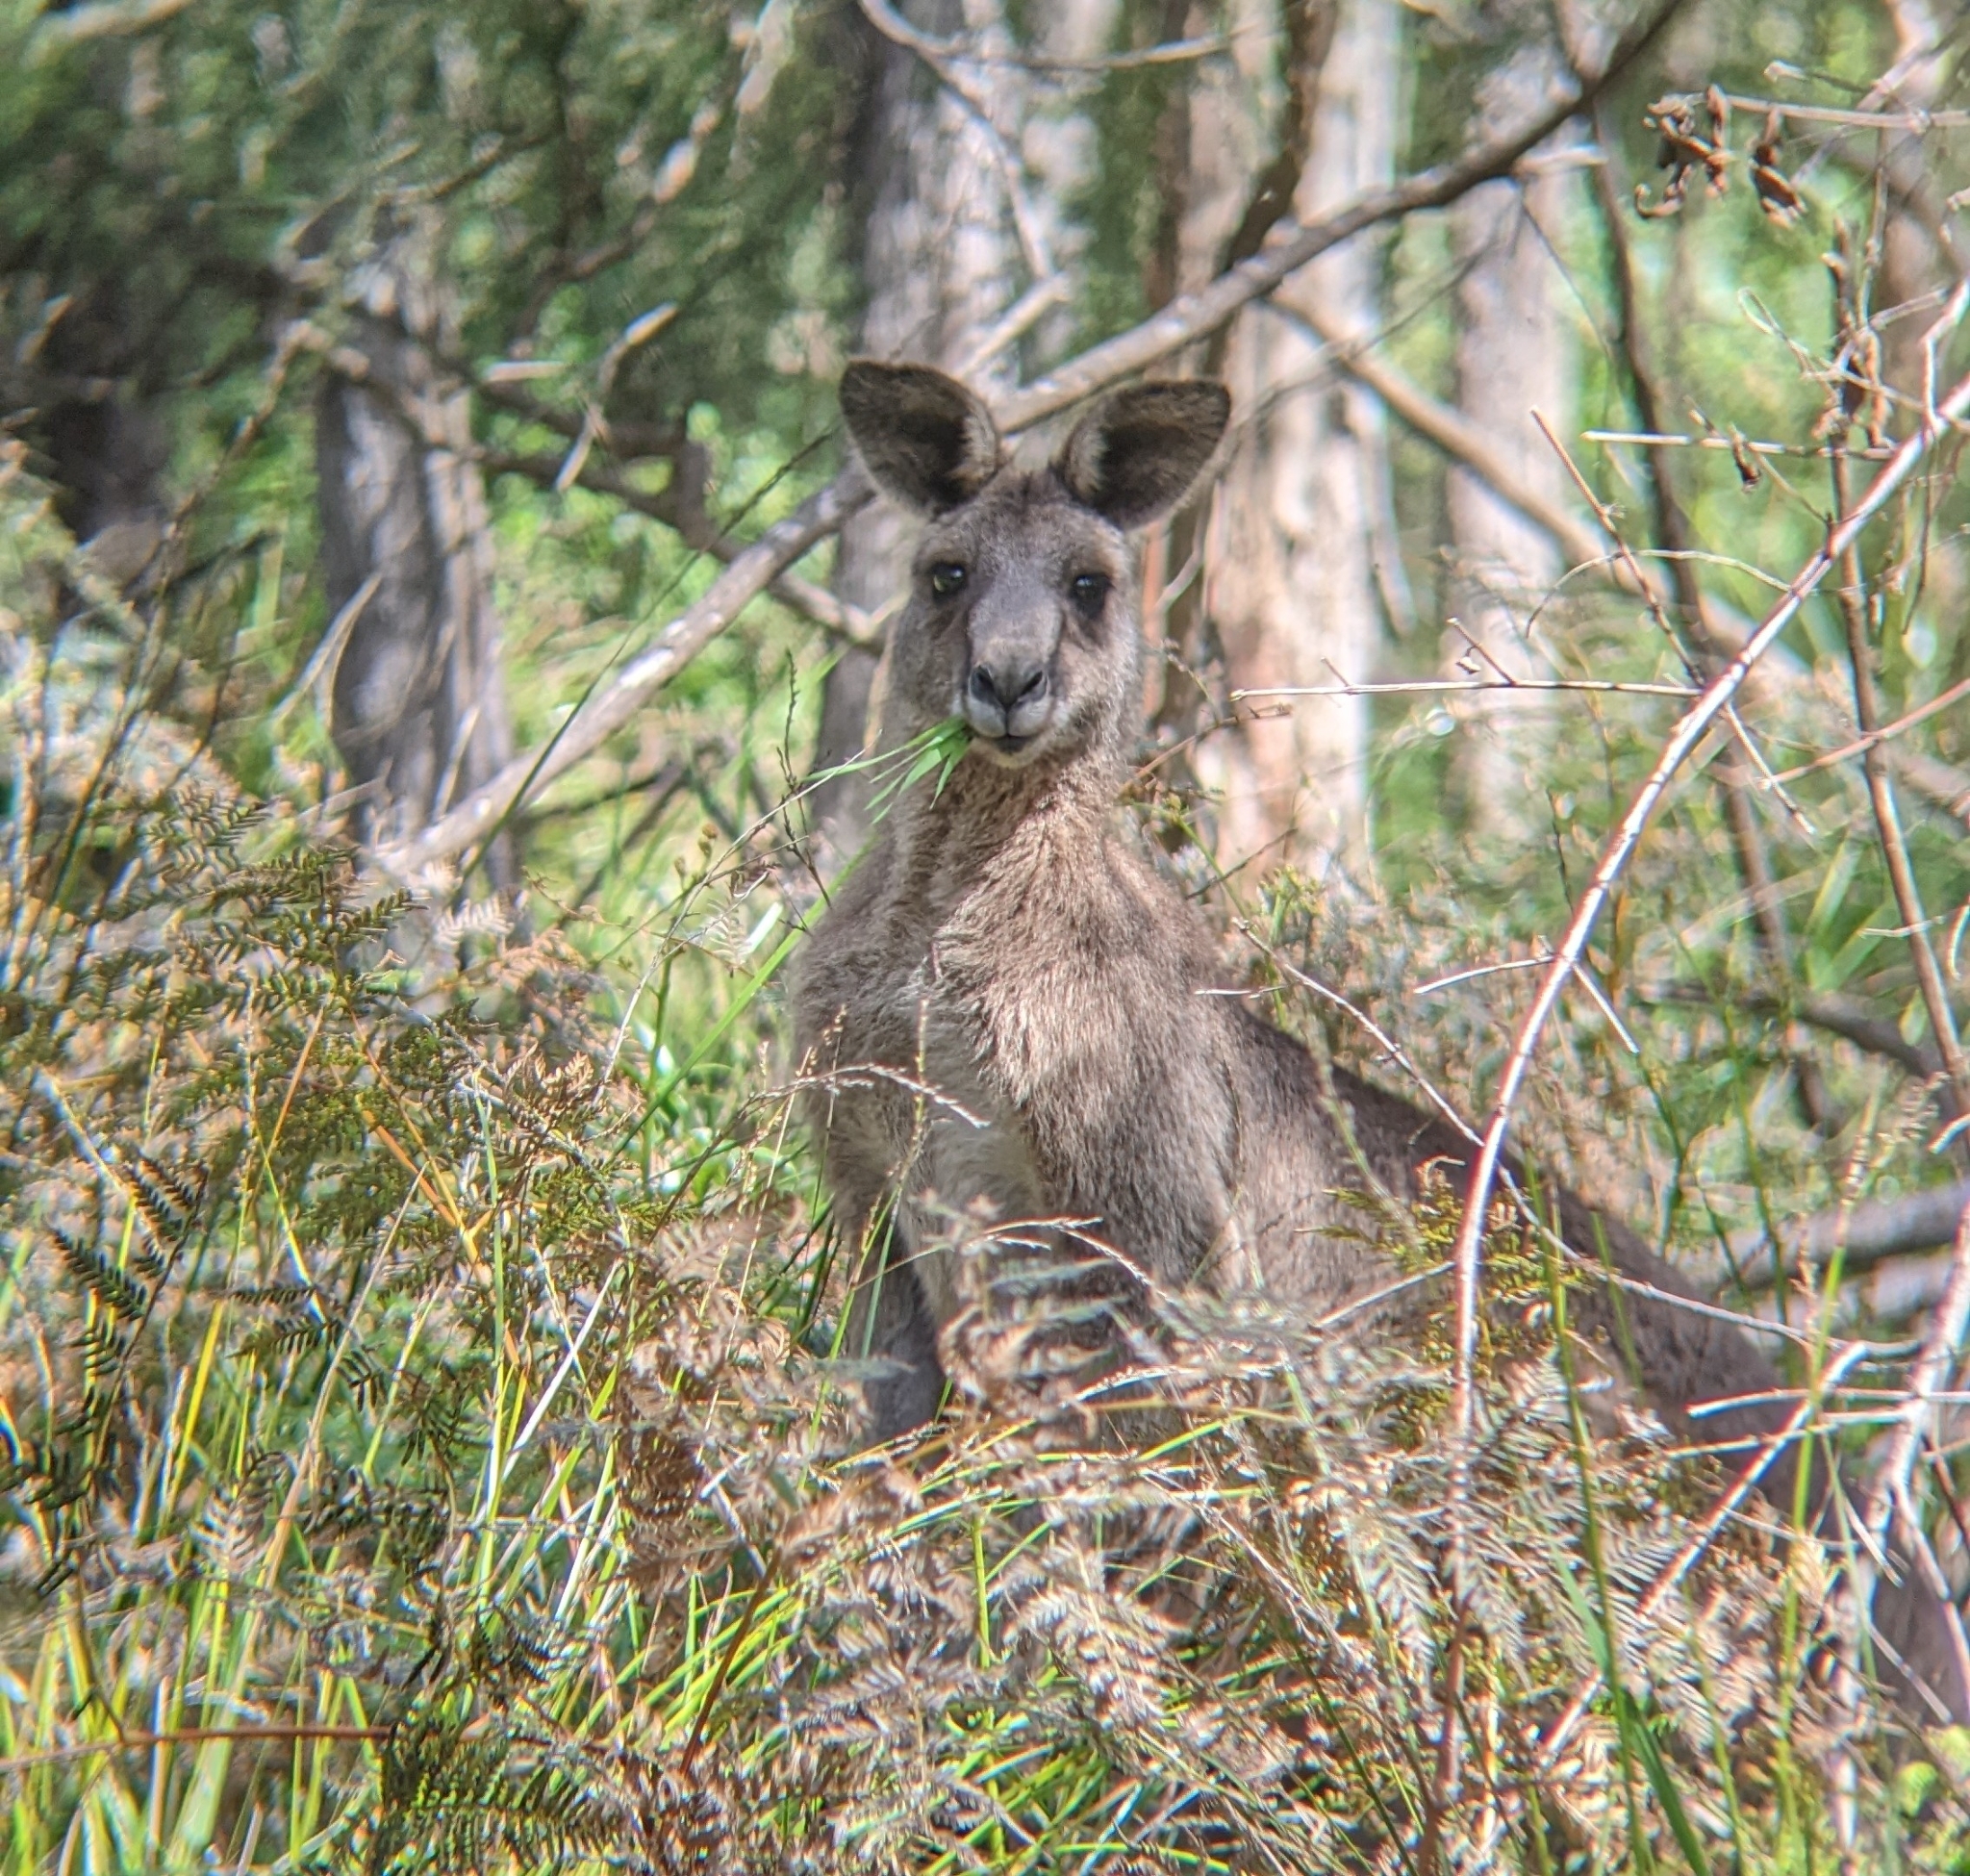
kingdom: Animalia
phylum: Chordata
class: Mammalia
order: Diprotodontia
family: Macropodidae
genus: Macropus
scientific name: Macropus giganteus
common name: Eastern grey kangaroo
